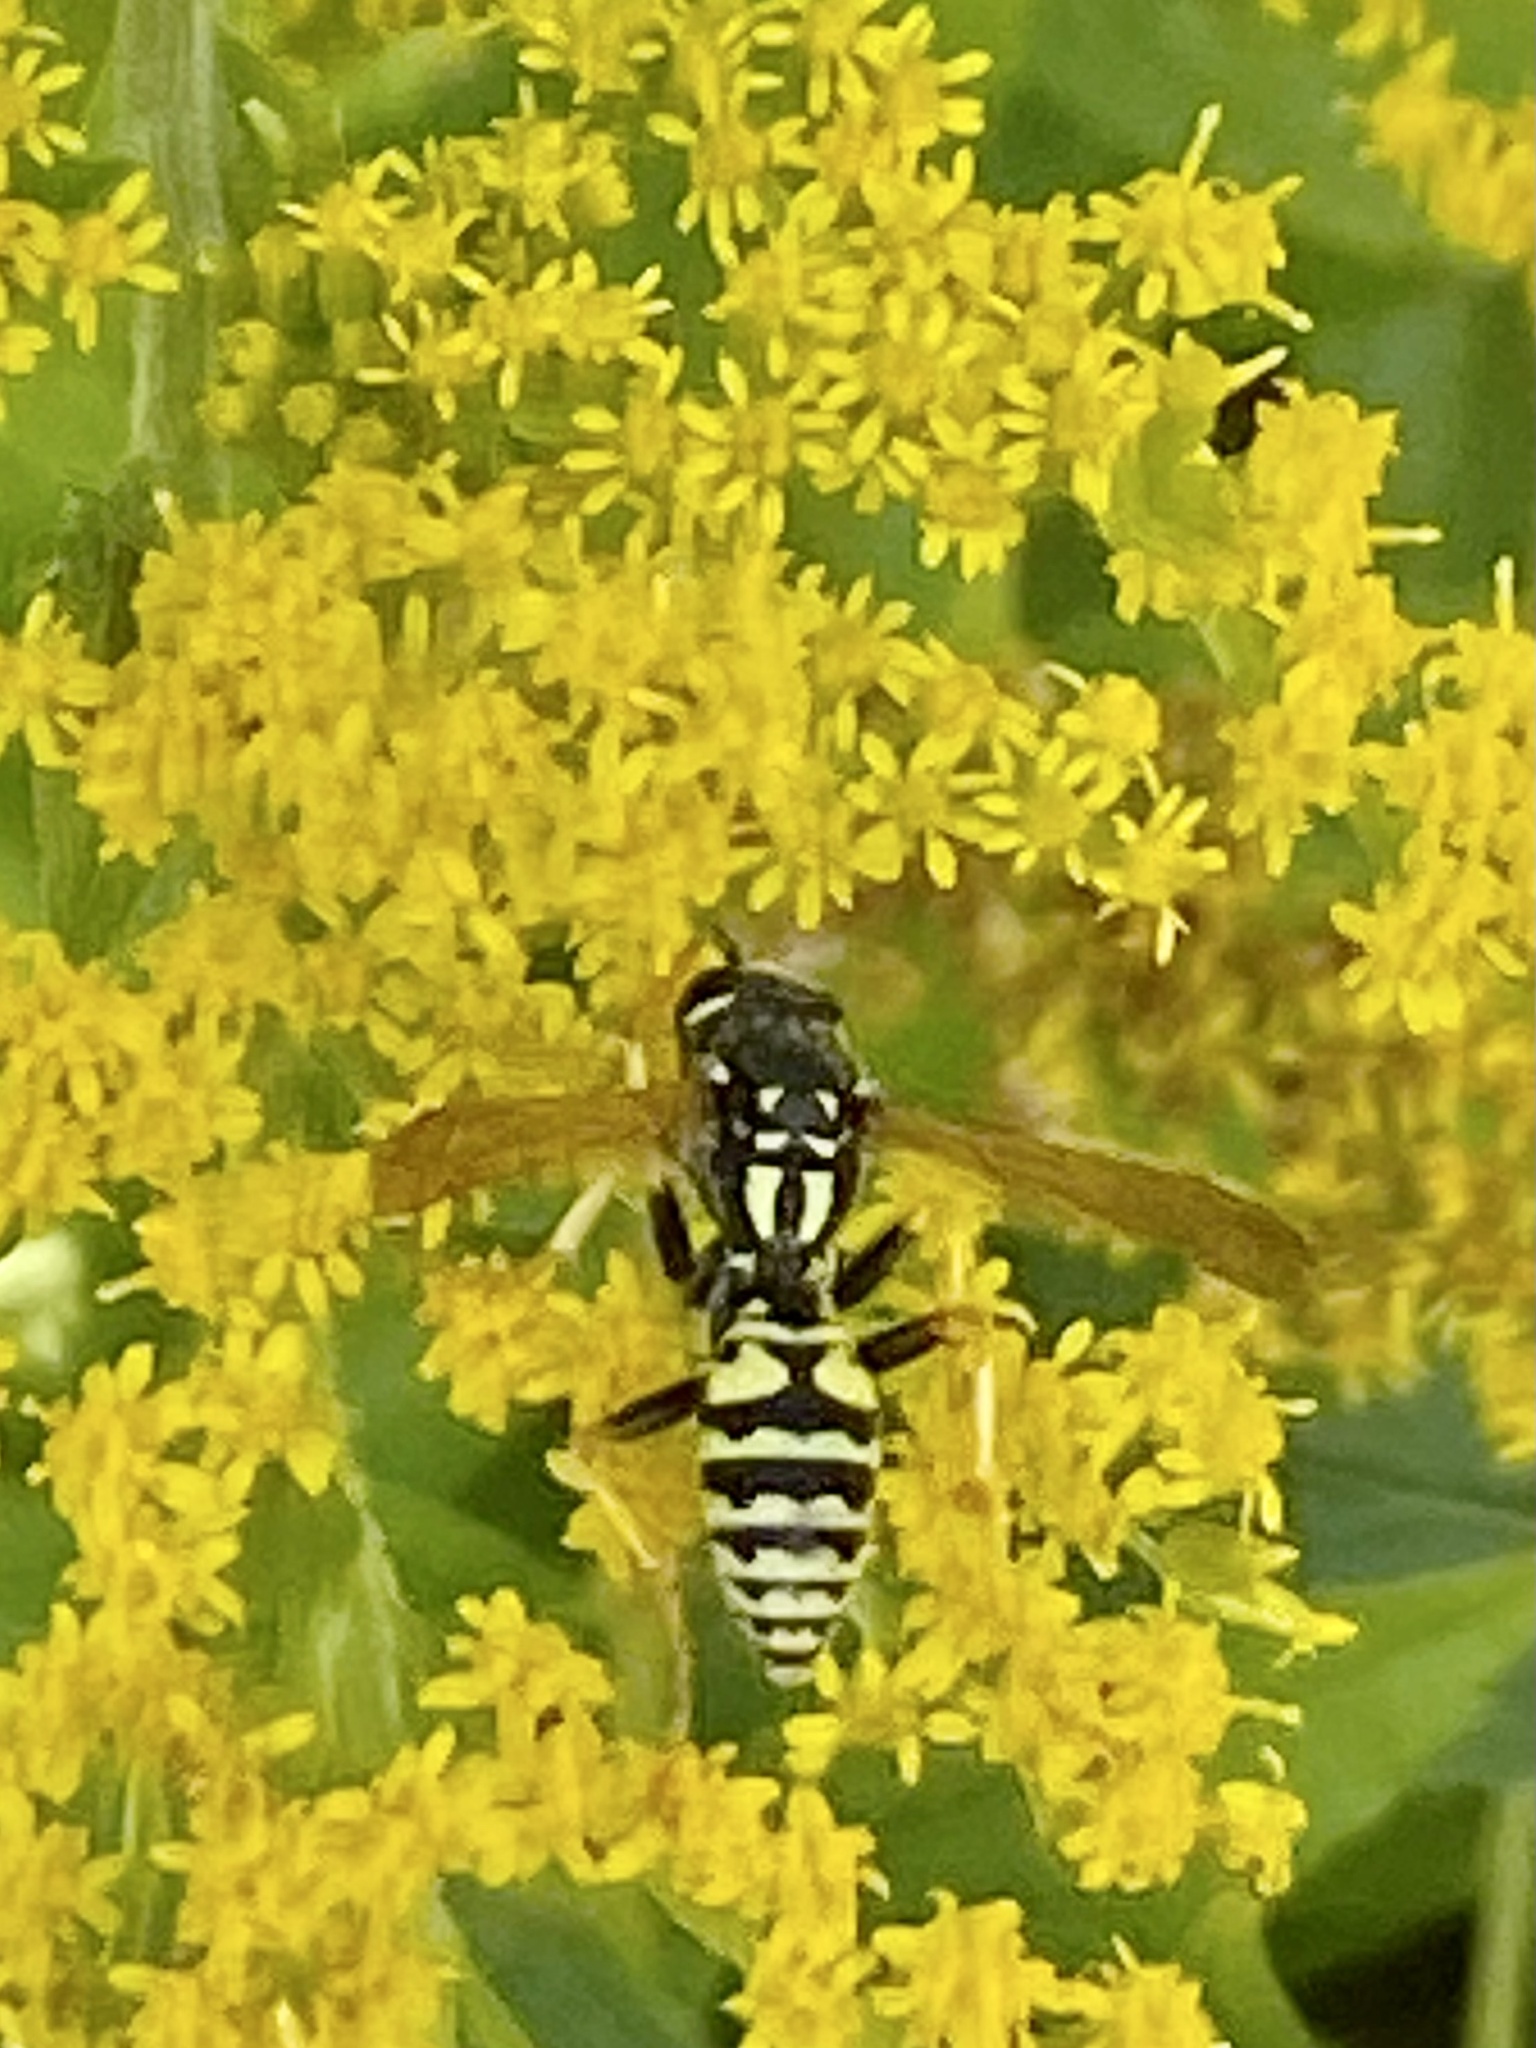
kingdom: Animalia
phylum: Arthropoda
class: Insecta
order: Hymenoptera
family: Eumenidae
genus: Polistes
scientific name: Polistes dominula
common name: Paper wasp
